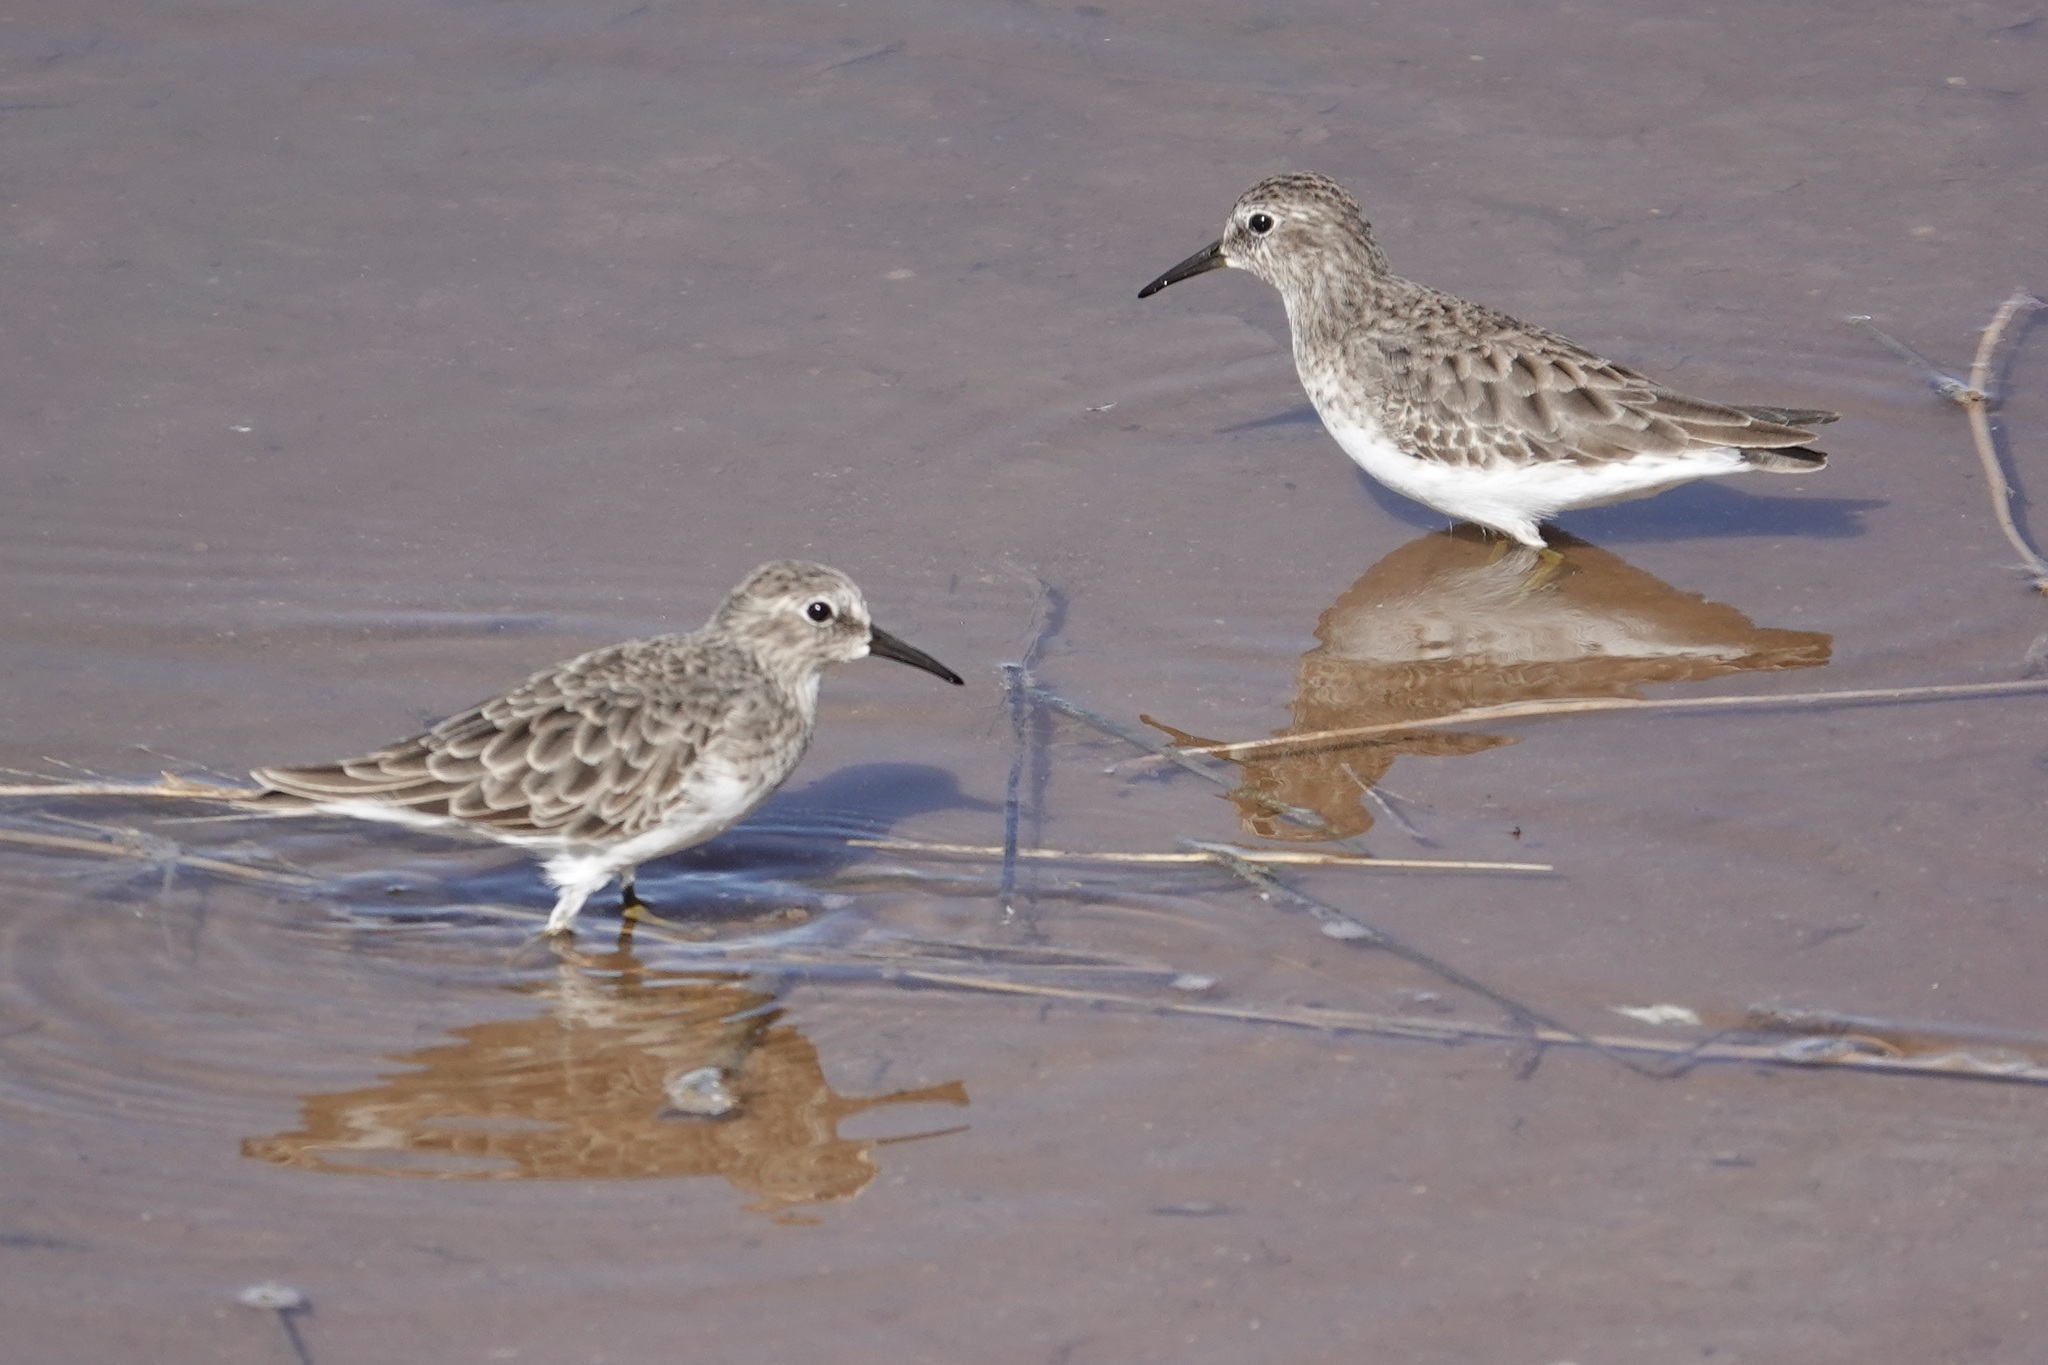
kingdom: Animalia
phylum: Chordata
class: Aves
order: Charadriiformes
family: Scolopacidae
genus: Calidris
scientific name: Calidris minutilla
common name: Least sandpiper
